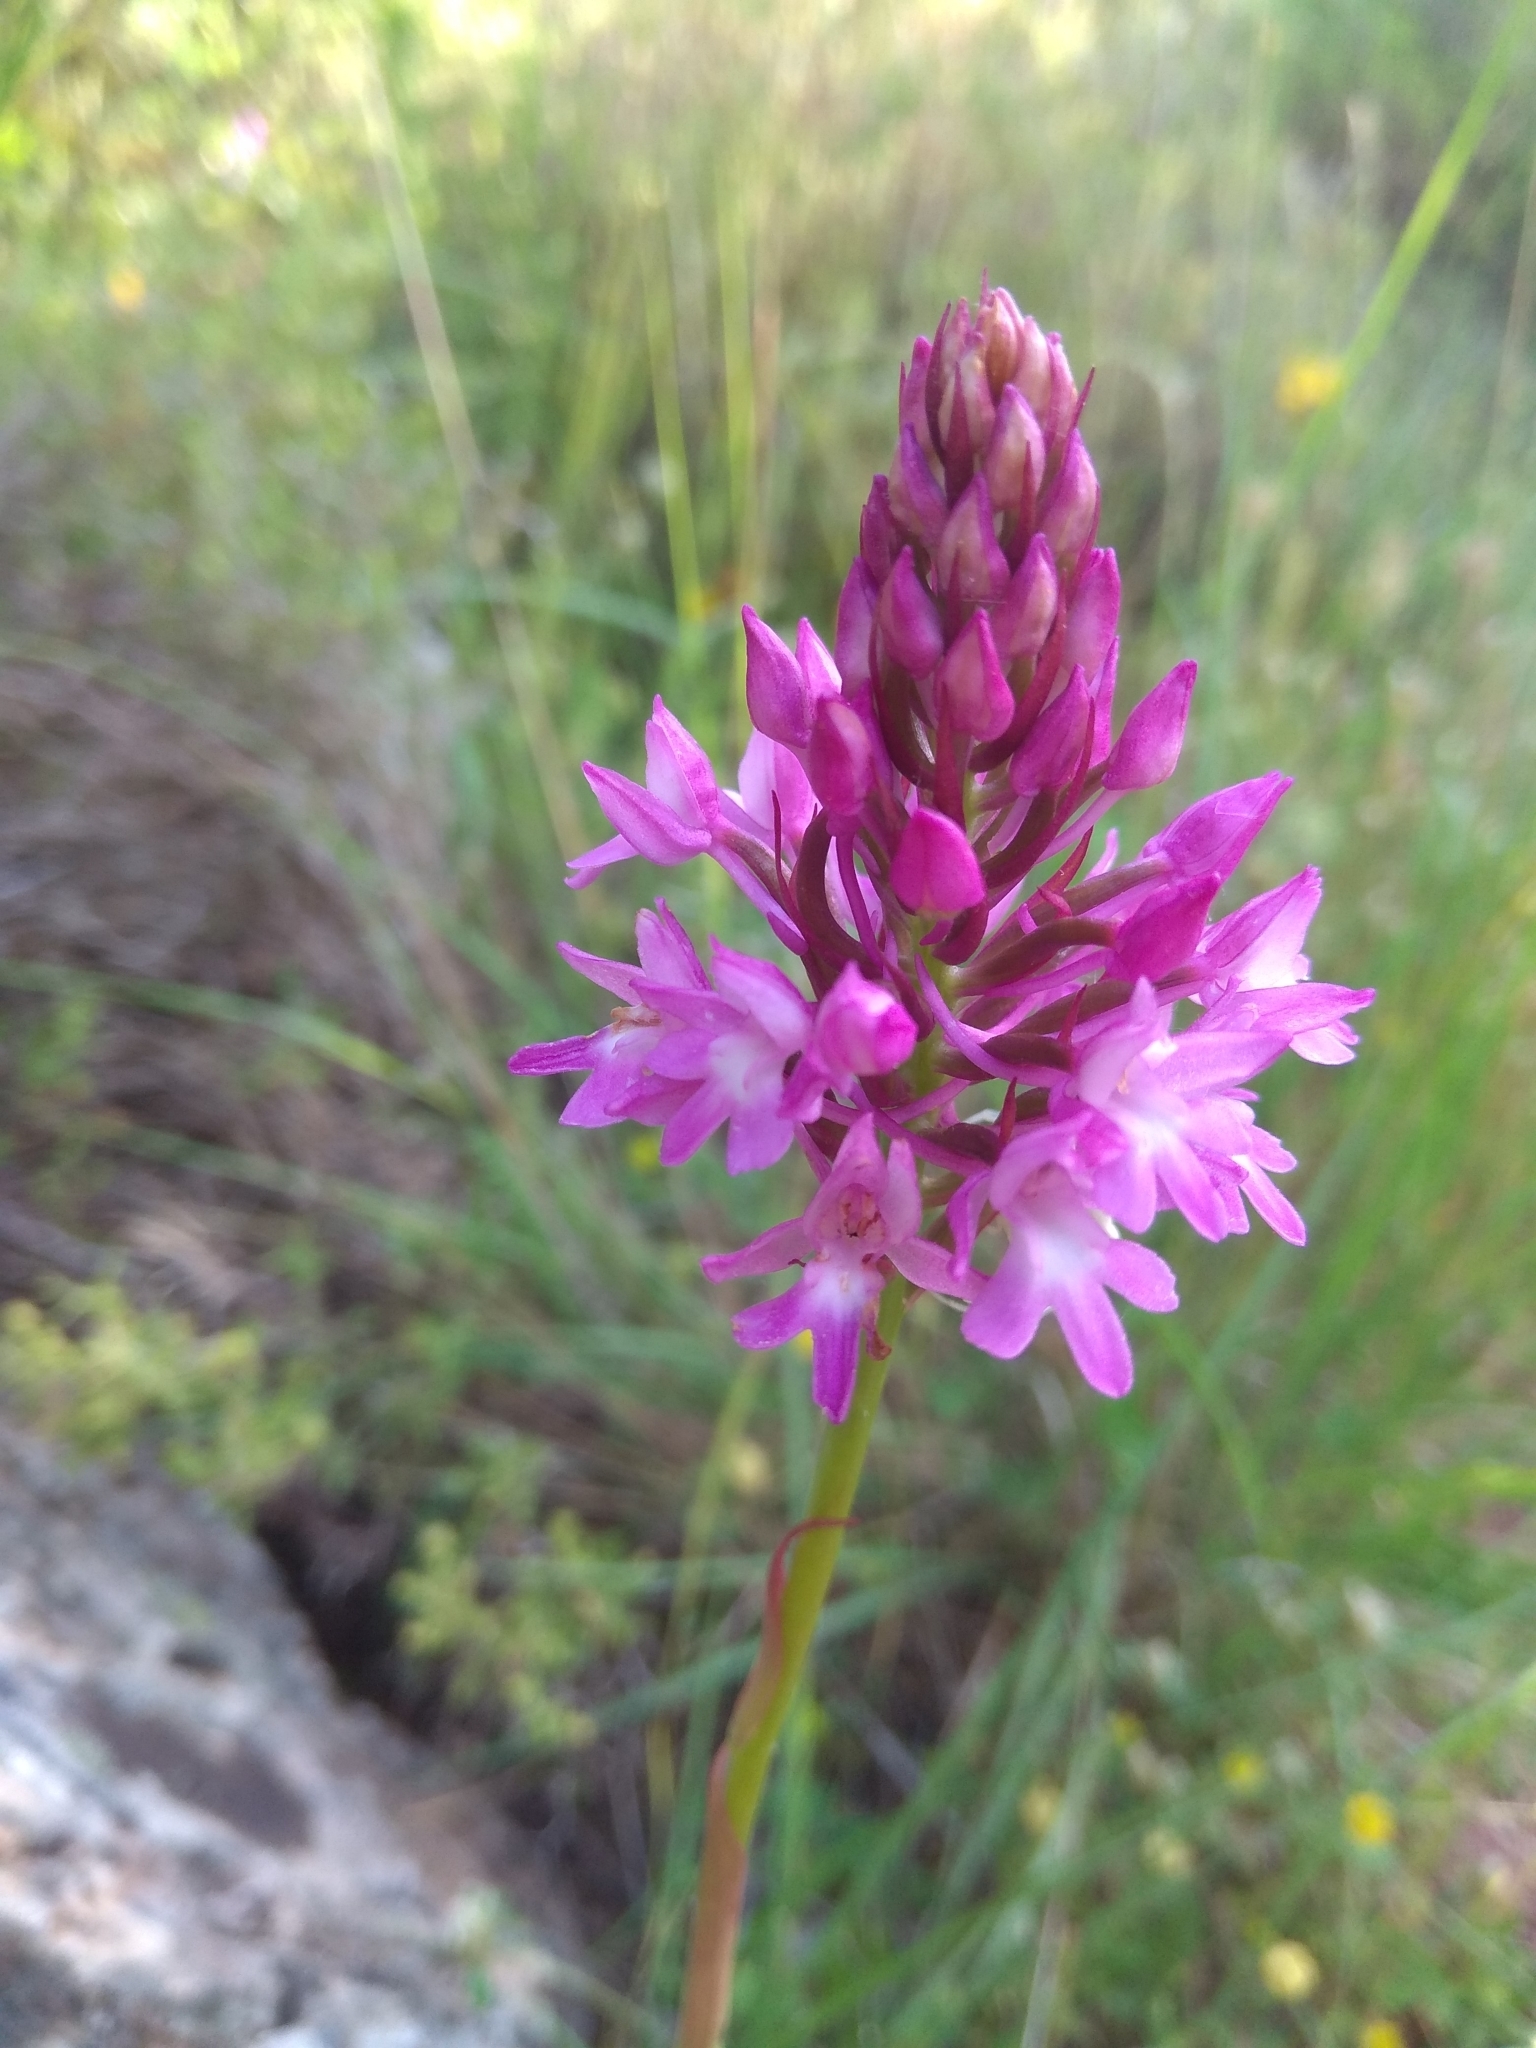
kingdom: Plantae
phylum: Tracheophyta
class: Liliopsida
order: Asparagales
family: Orchidaceae
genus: Anacamptis
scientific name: Anacamptis pyramidalis
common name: Pyramidal orchid
